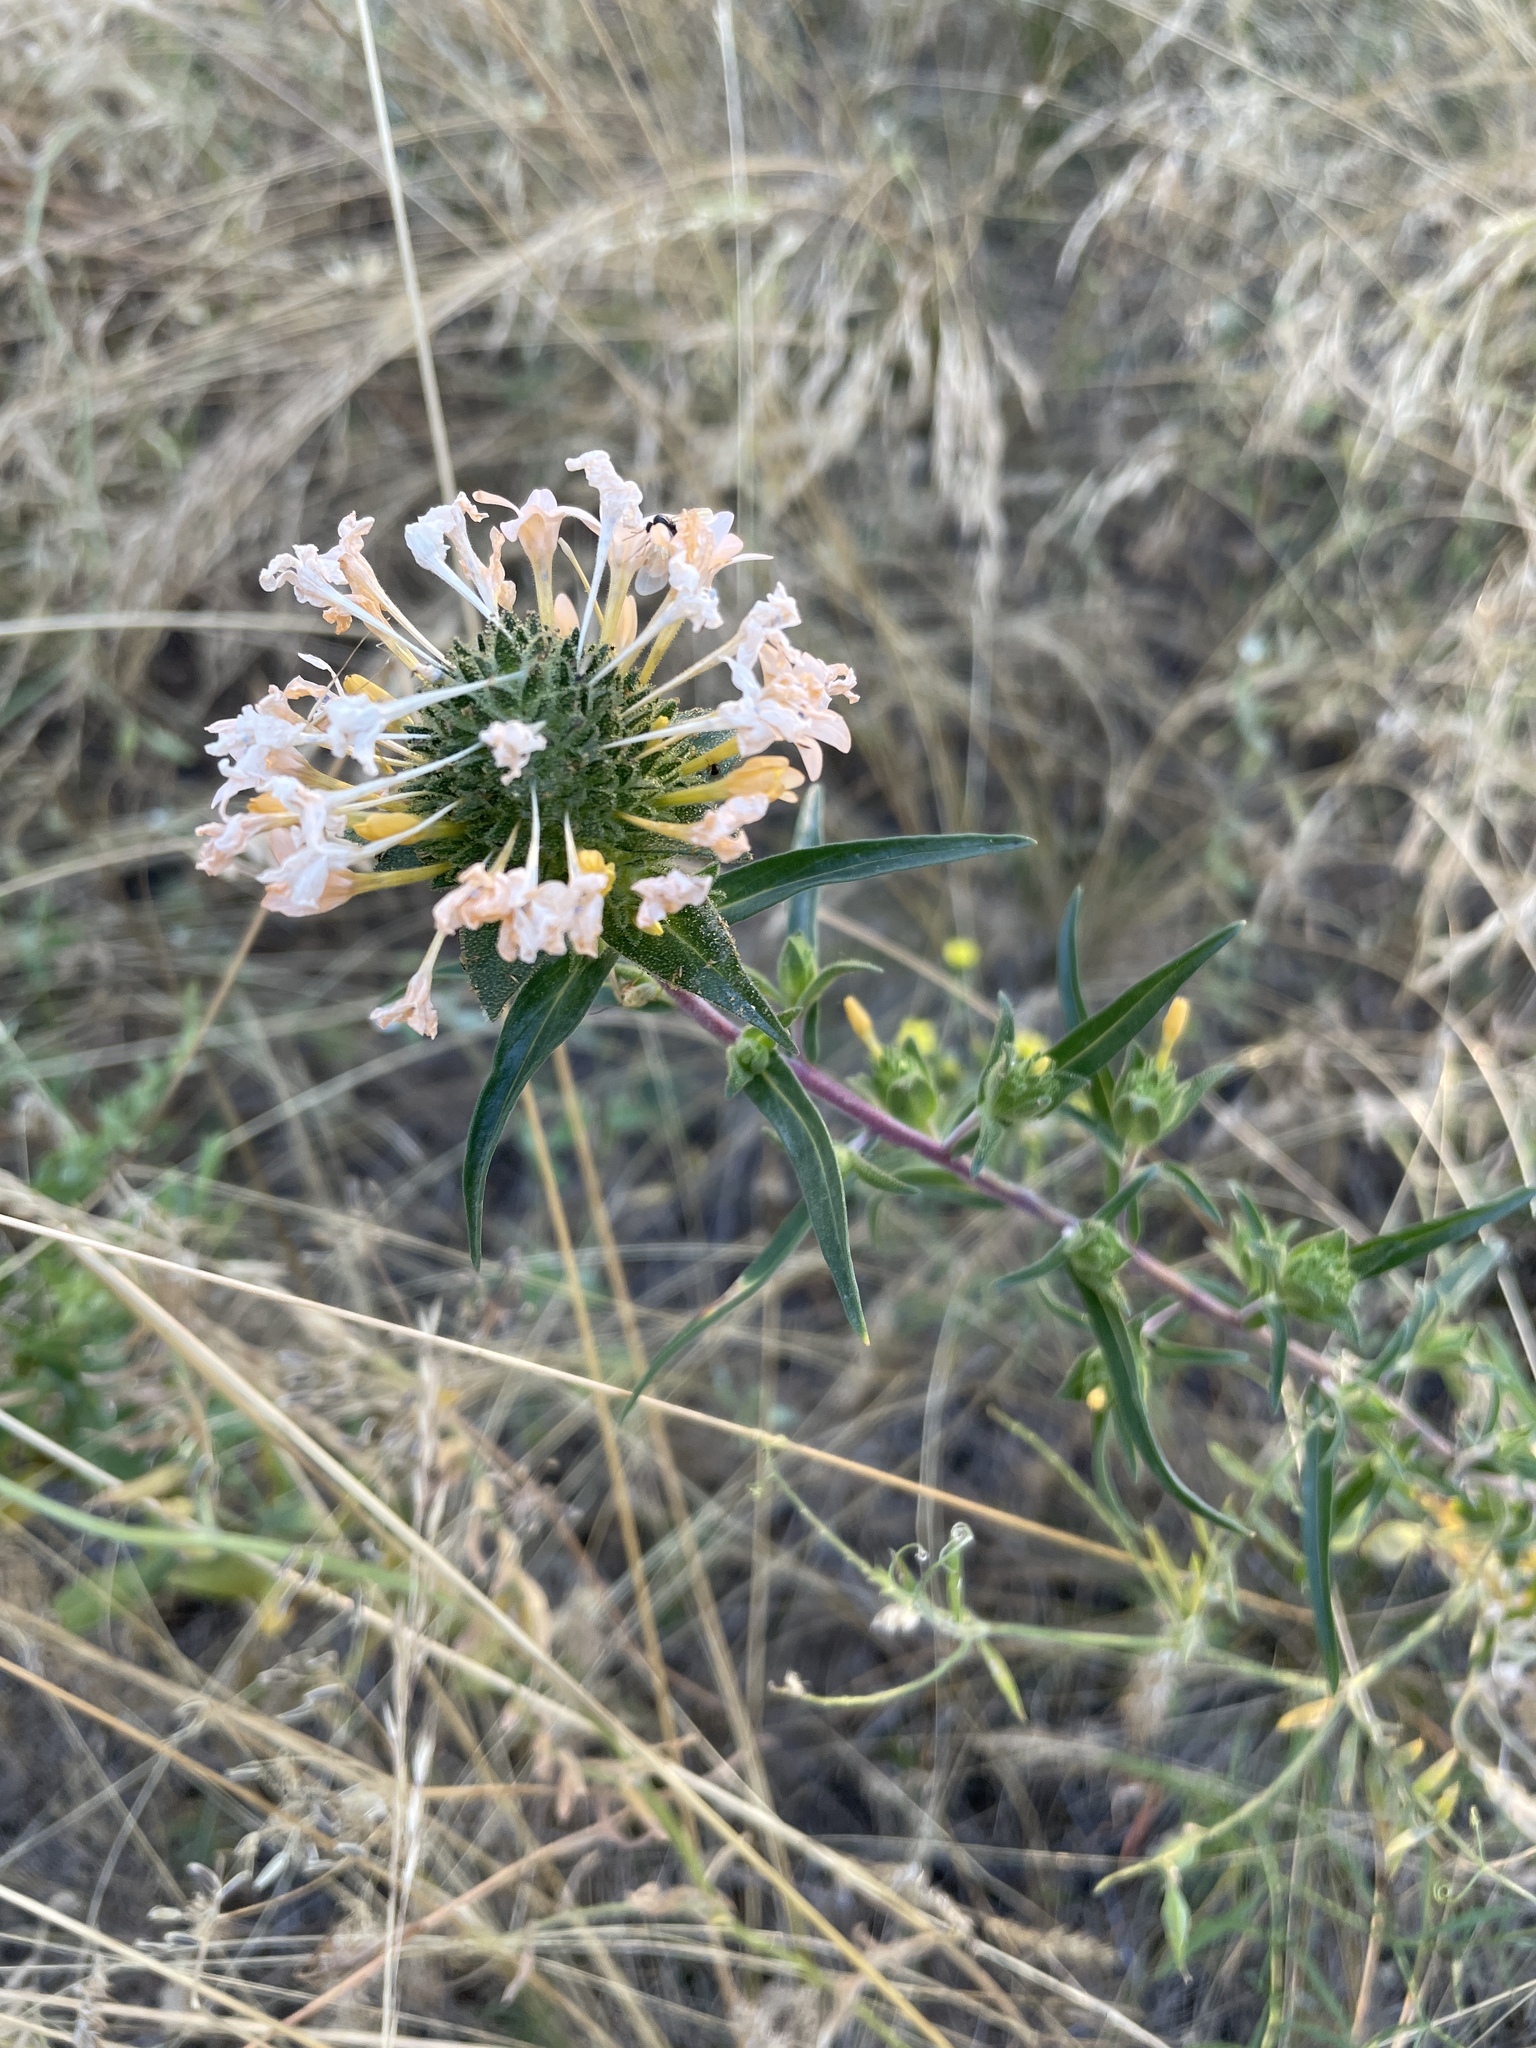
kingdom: Plantae
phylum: Tracheophyta
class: Magnoliopsida
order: Ericales
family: Polemoniaceae
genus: Collomia
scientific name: Collomia grandiflora
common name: California strawflower
